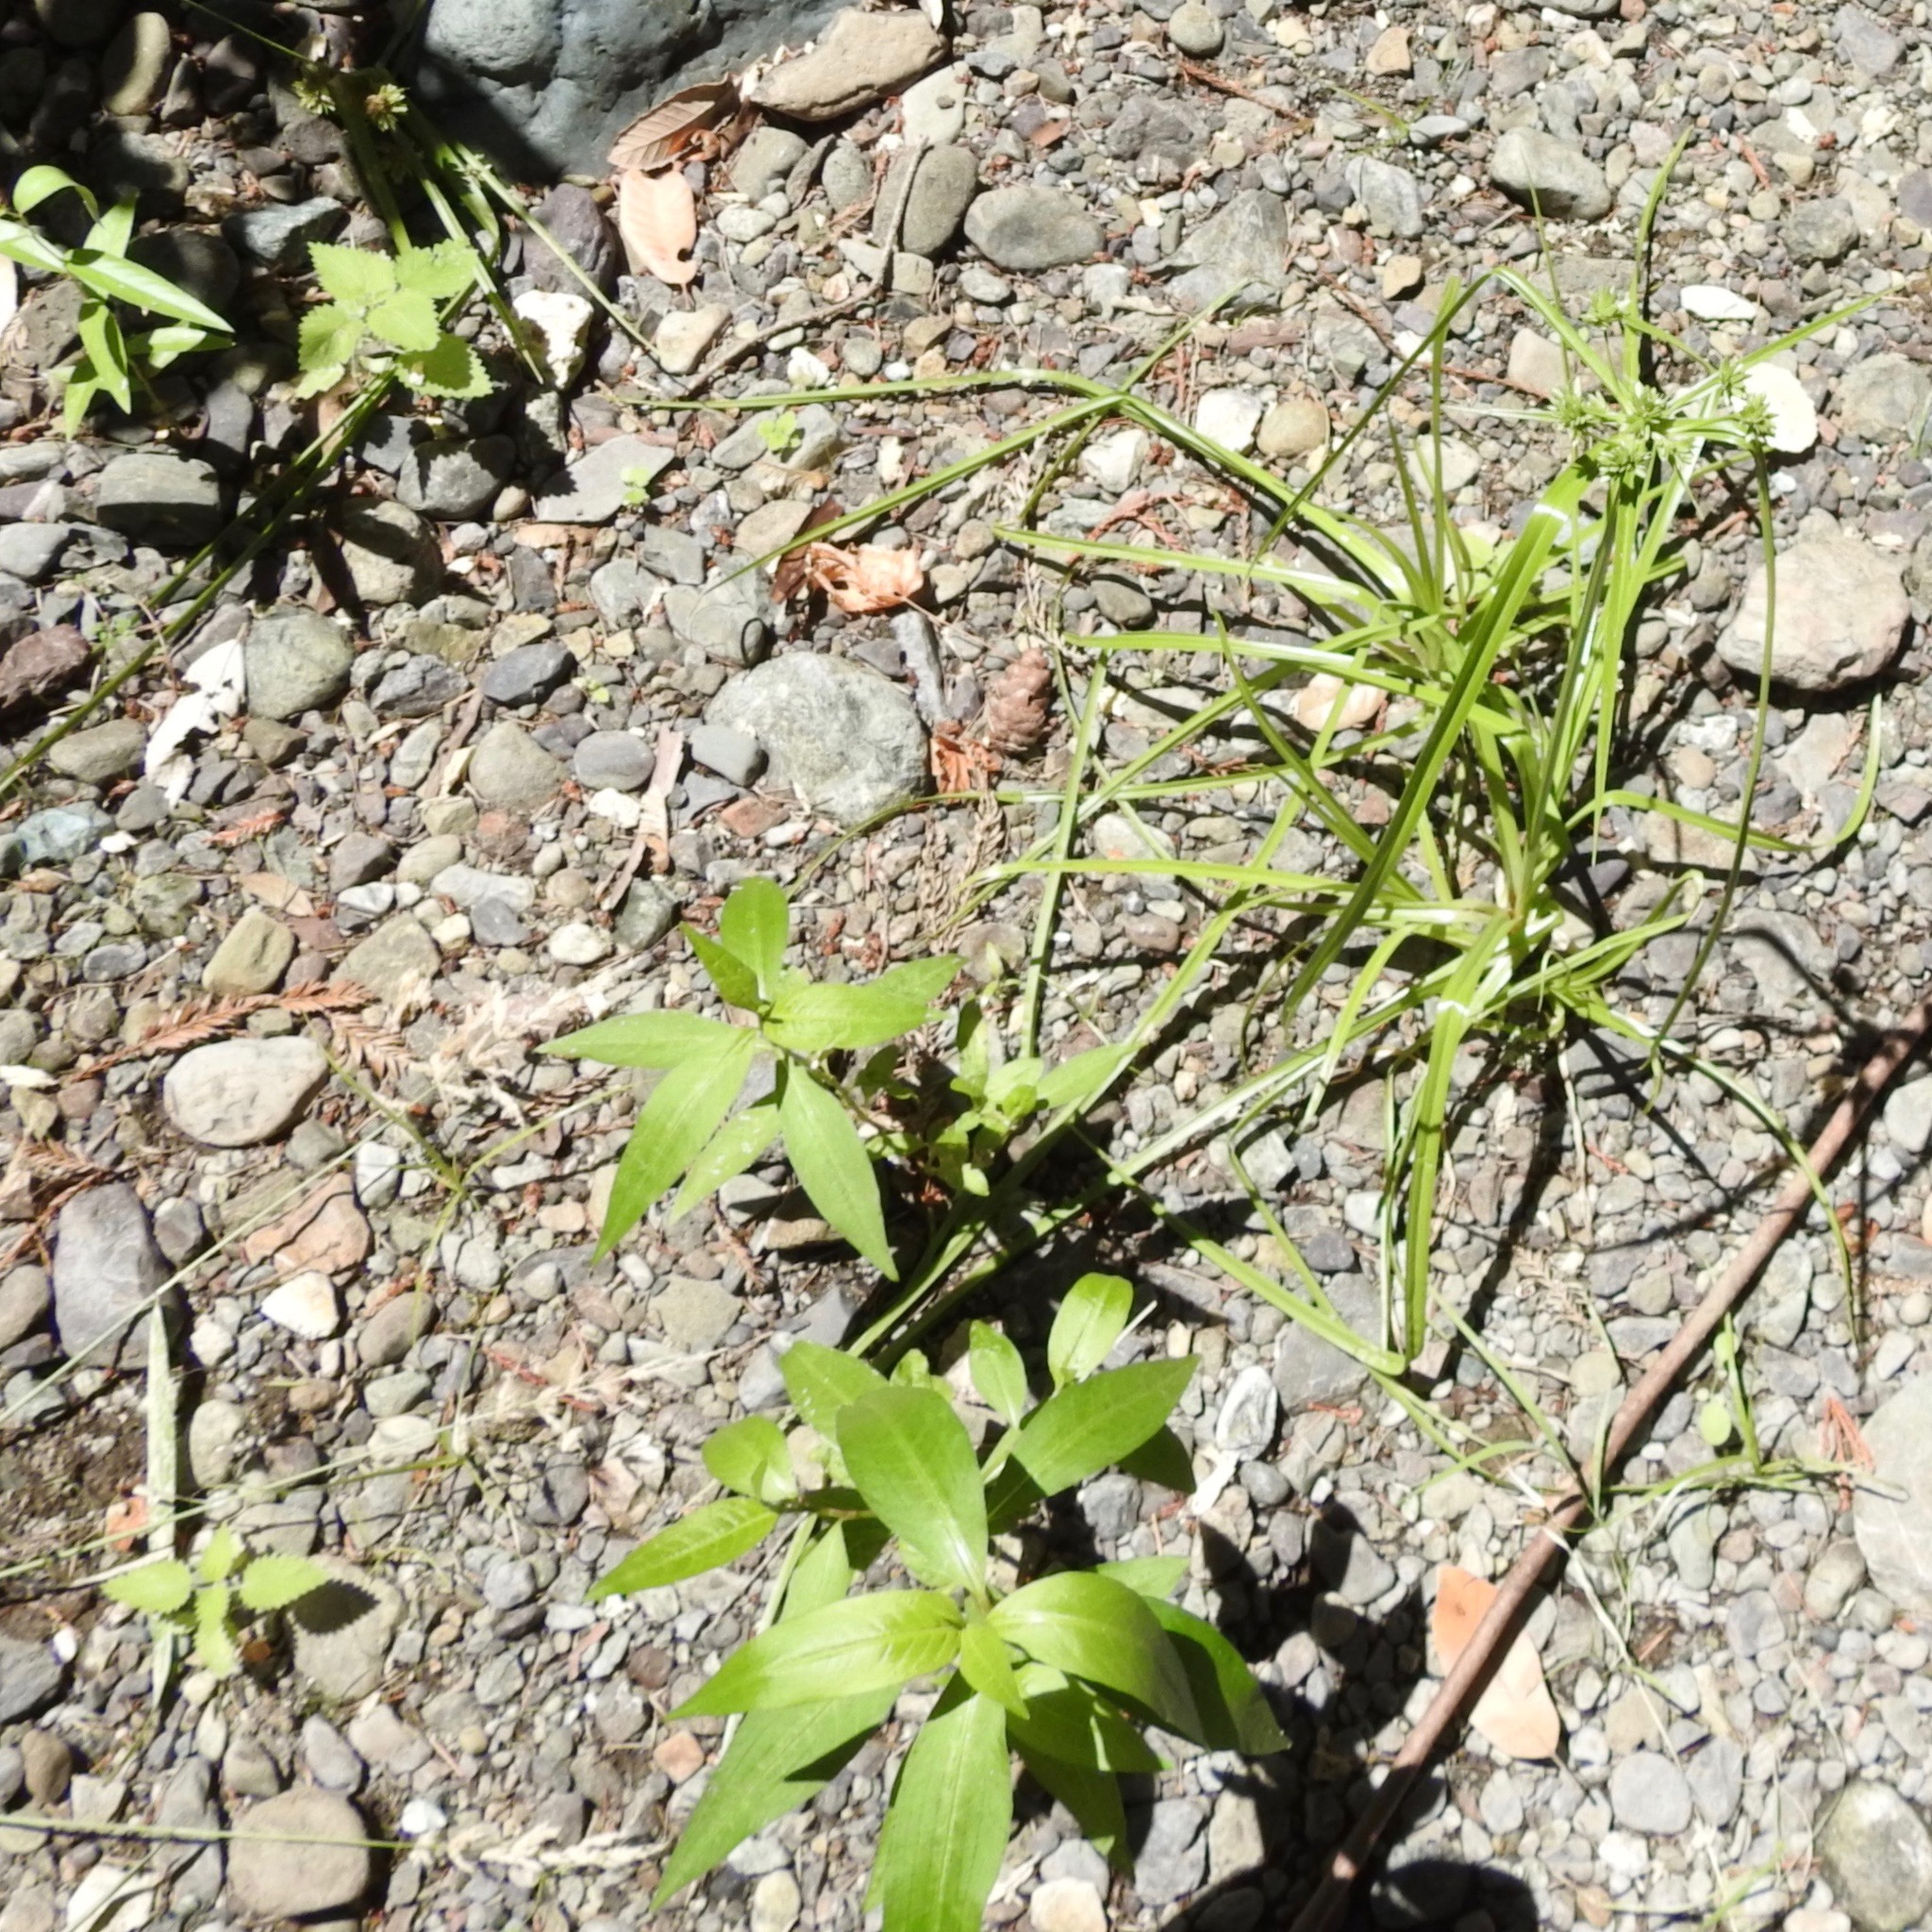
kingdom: Plantae
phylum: Tracheophyta
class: Liliopsida
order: Poales
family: Cyperaceae
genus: Cyperus
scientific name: Cyperus eragrostis
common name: Tall flatsedge
